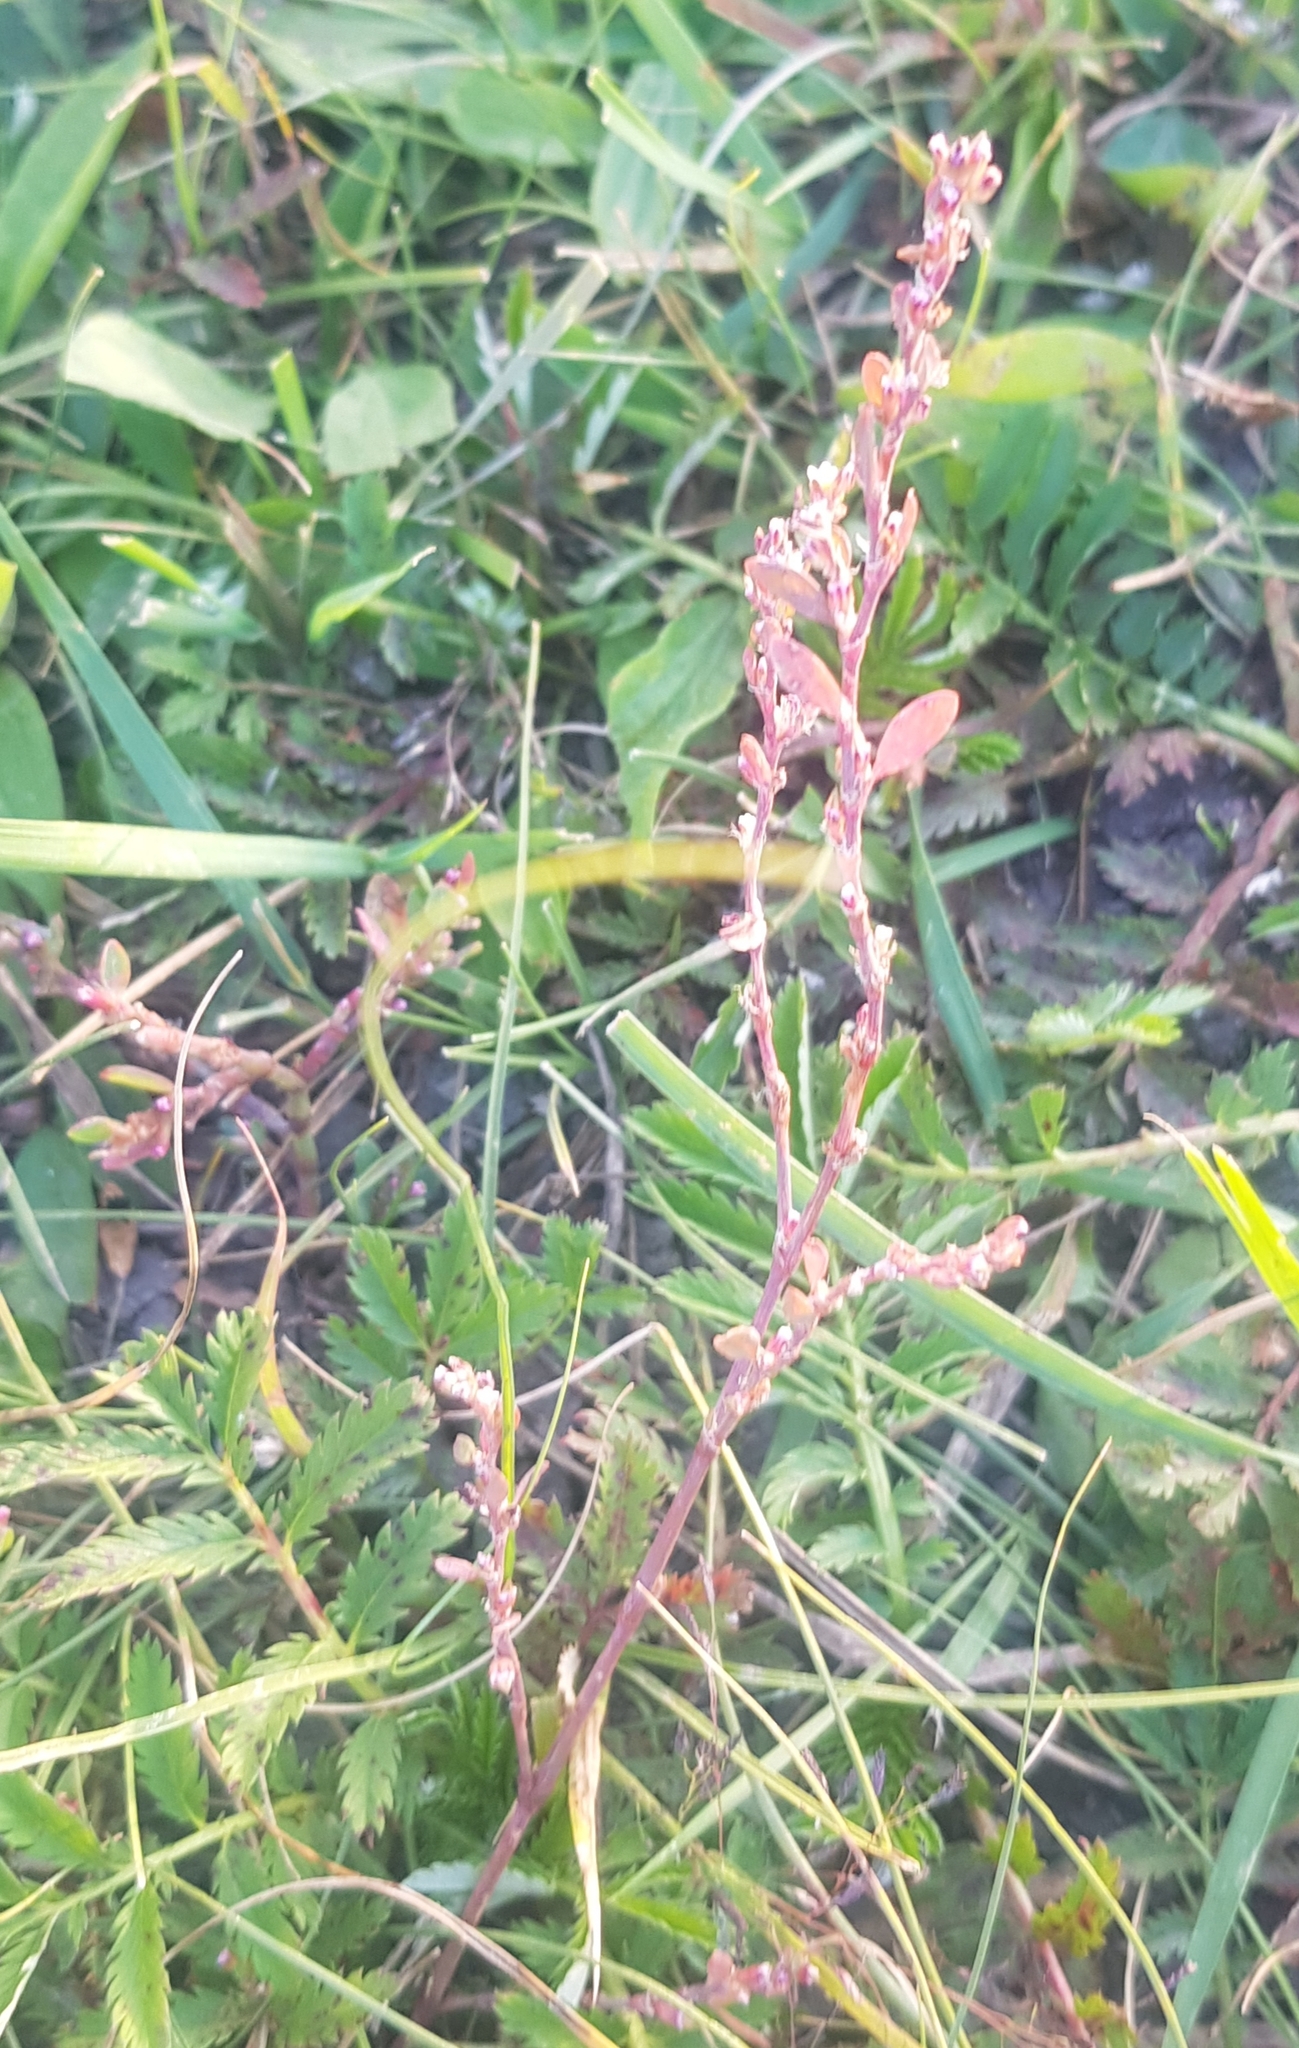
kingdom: Plantae
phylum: Tracheophyta
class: Magnoliopsida
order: Caryophyllales
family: Polygonaceae
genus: Polygonum
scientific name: Polygonum aviculare
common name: Prostrate knotweed
